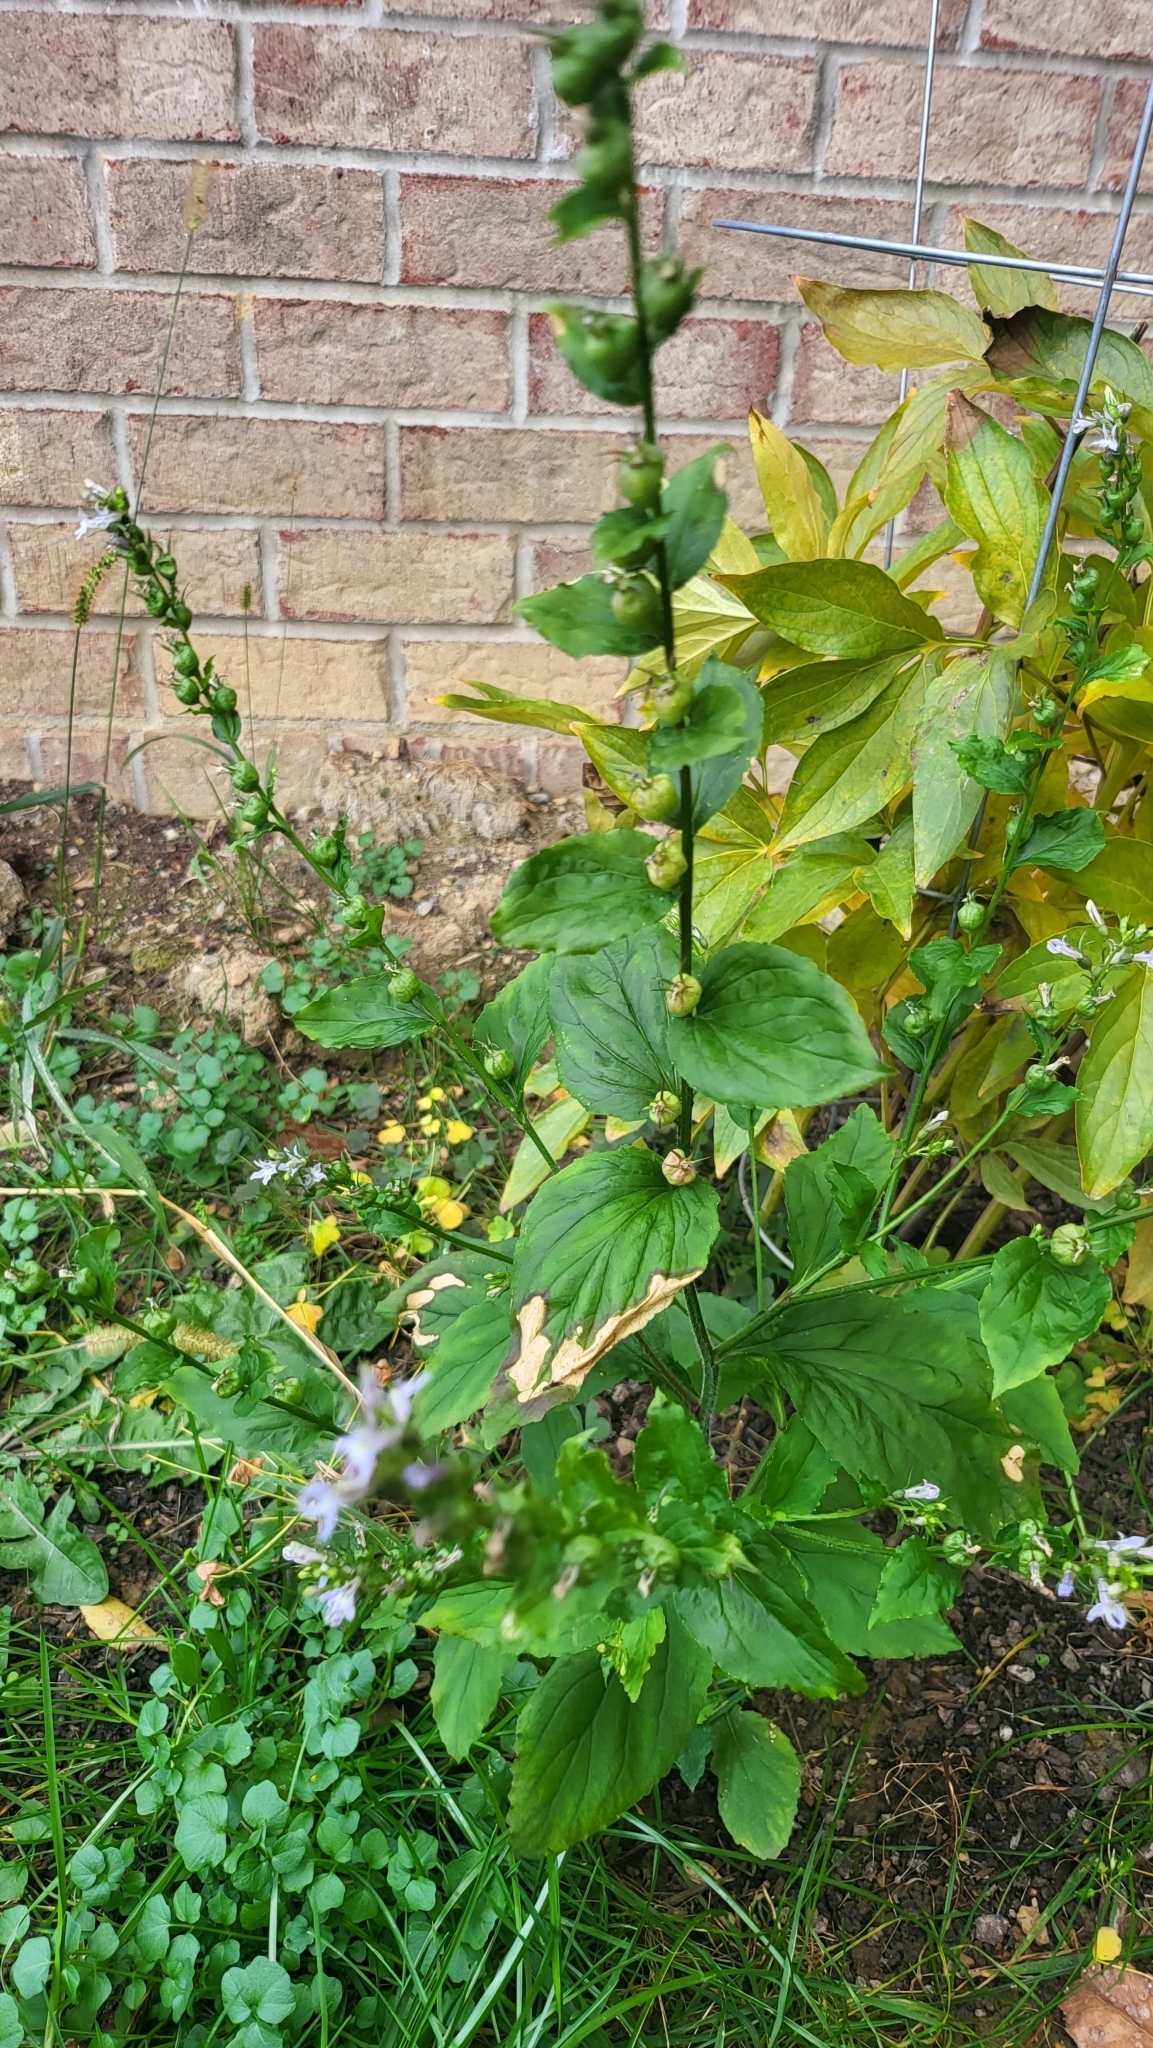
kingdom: Plantae
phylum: Tracheophyta
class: Magnoliopsida
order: Asterales
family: Campanulaceae
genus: Lobelia
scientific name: Lobelia inflata
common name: Indian tobacco
